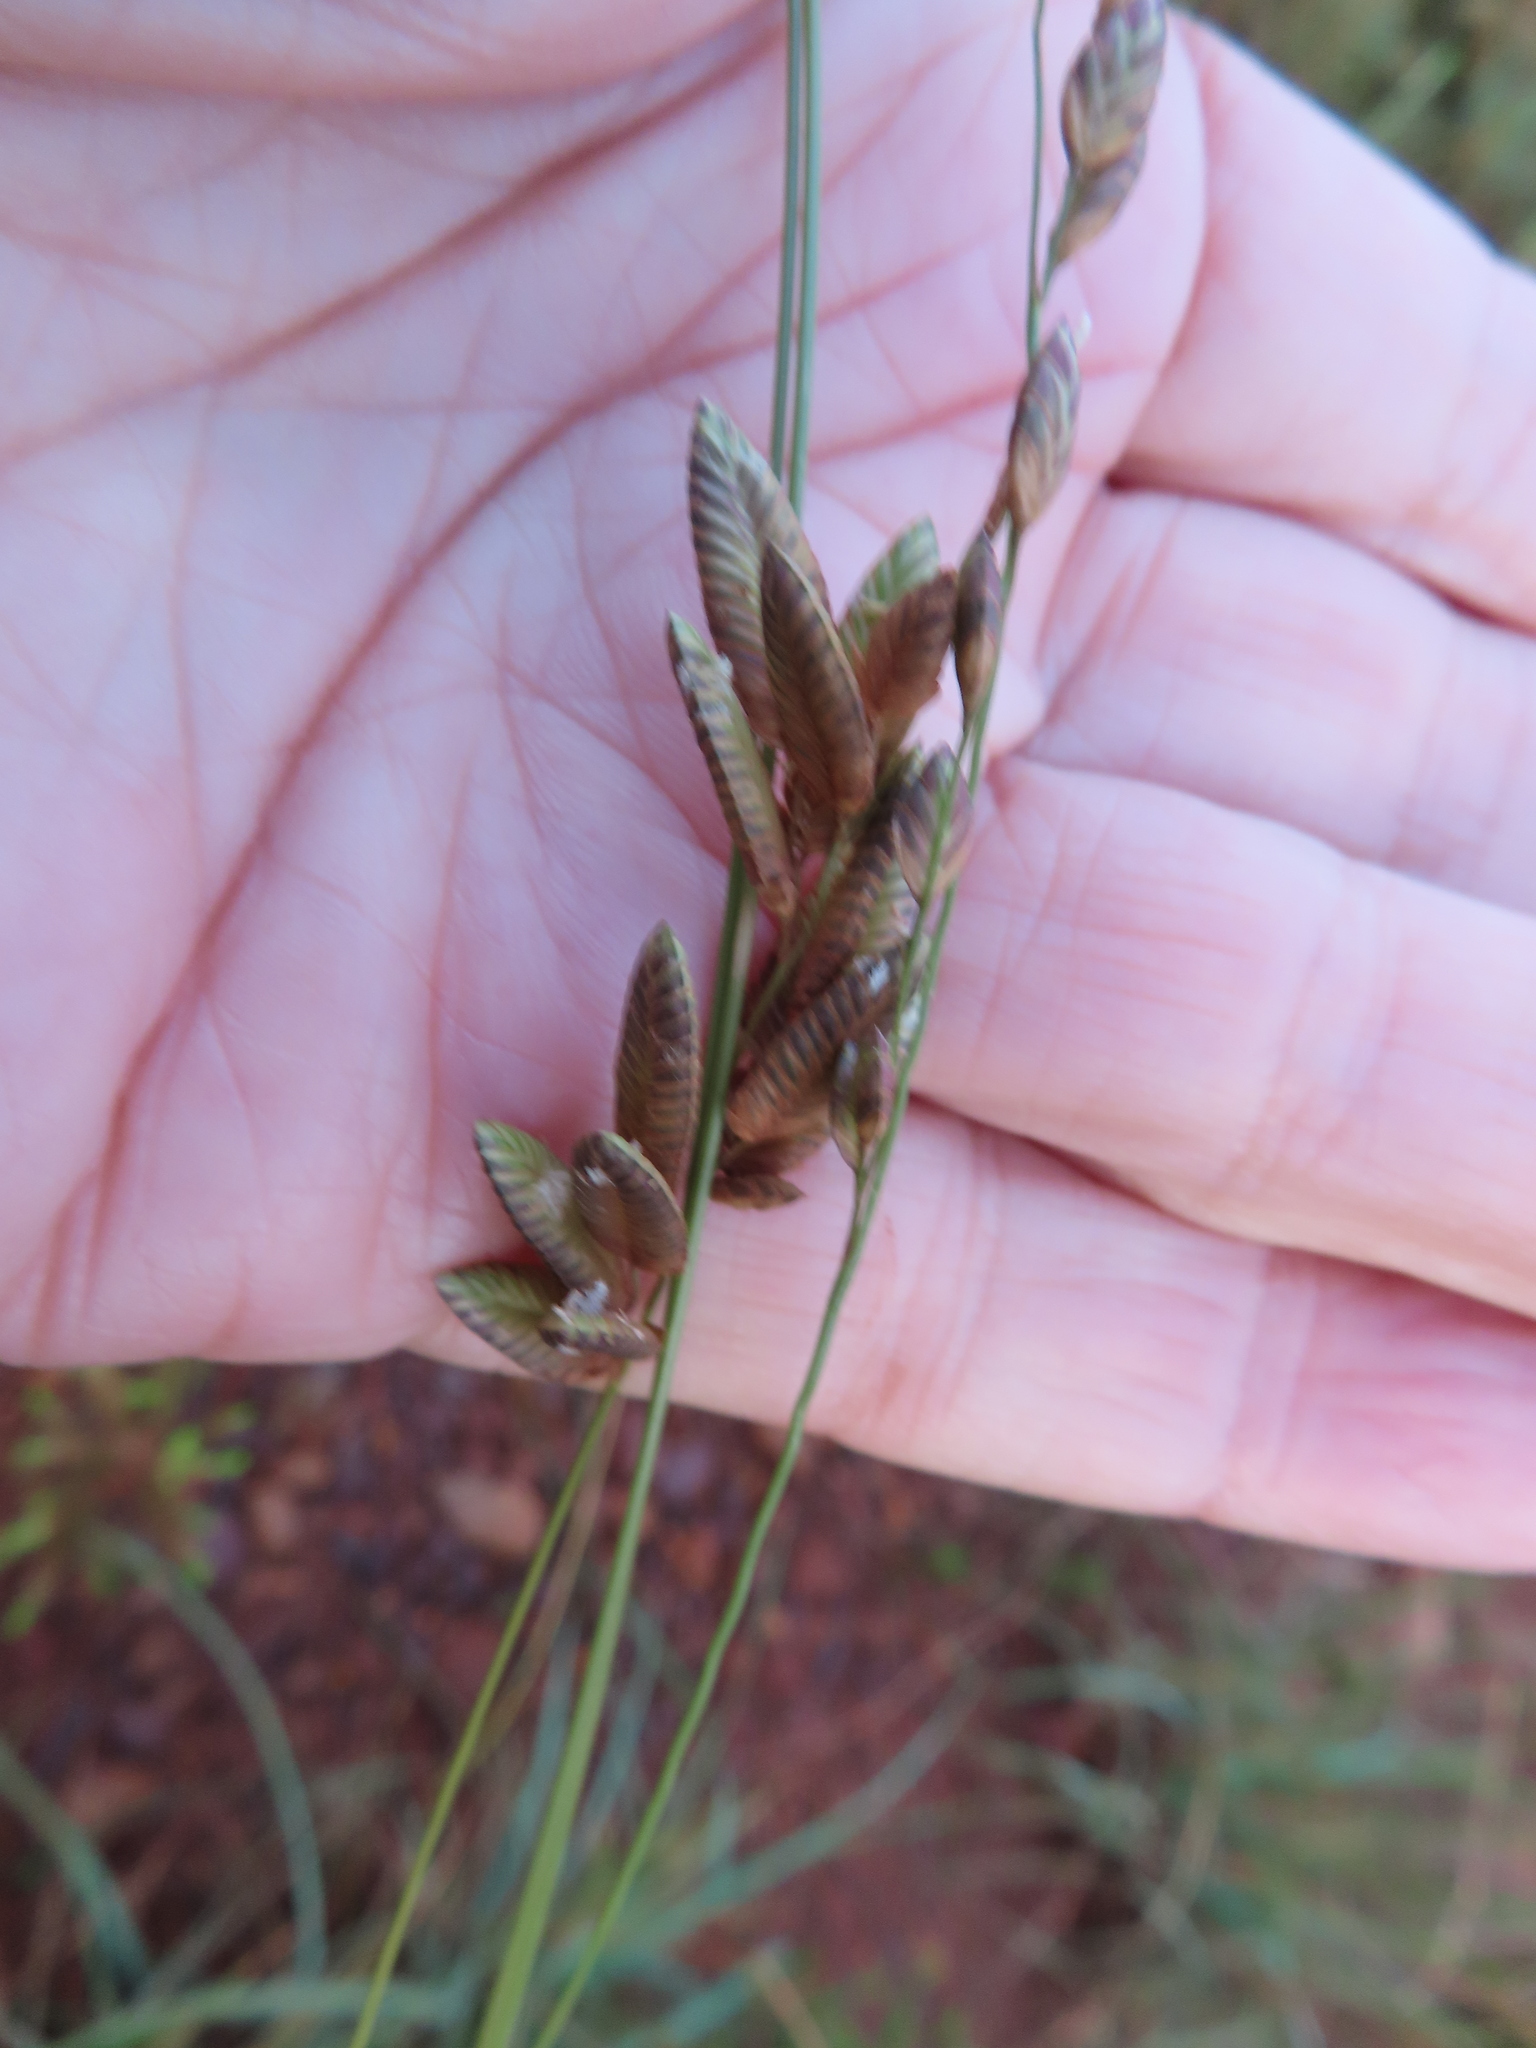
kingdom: Plantae
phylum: Tracheophyta
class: Liliopsida
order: Poales
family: Poaceae
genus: Eragrostis
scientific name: Eragrostis capensis
